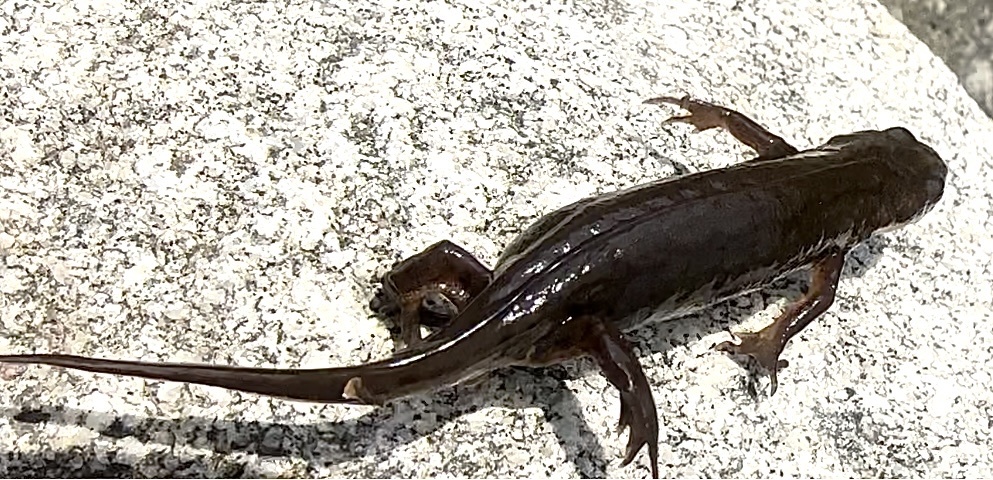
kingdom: Animalia
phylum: Chordata
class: Amphibia
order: Caudata
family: Salamandridae
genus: Lissotriton
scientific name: Lissotriton vulgaris
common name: Smooth newt
